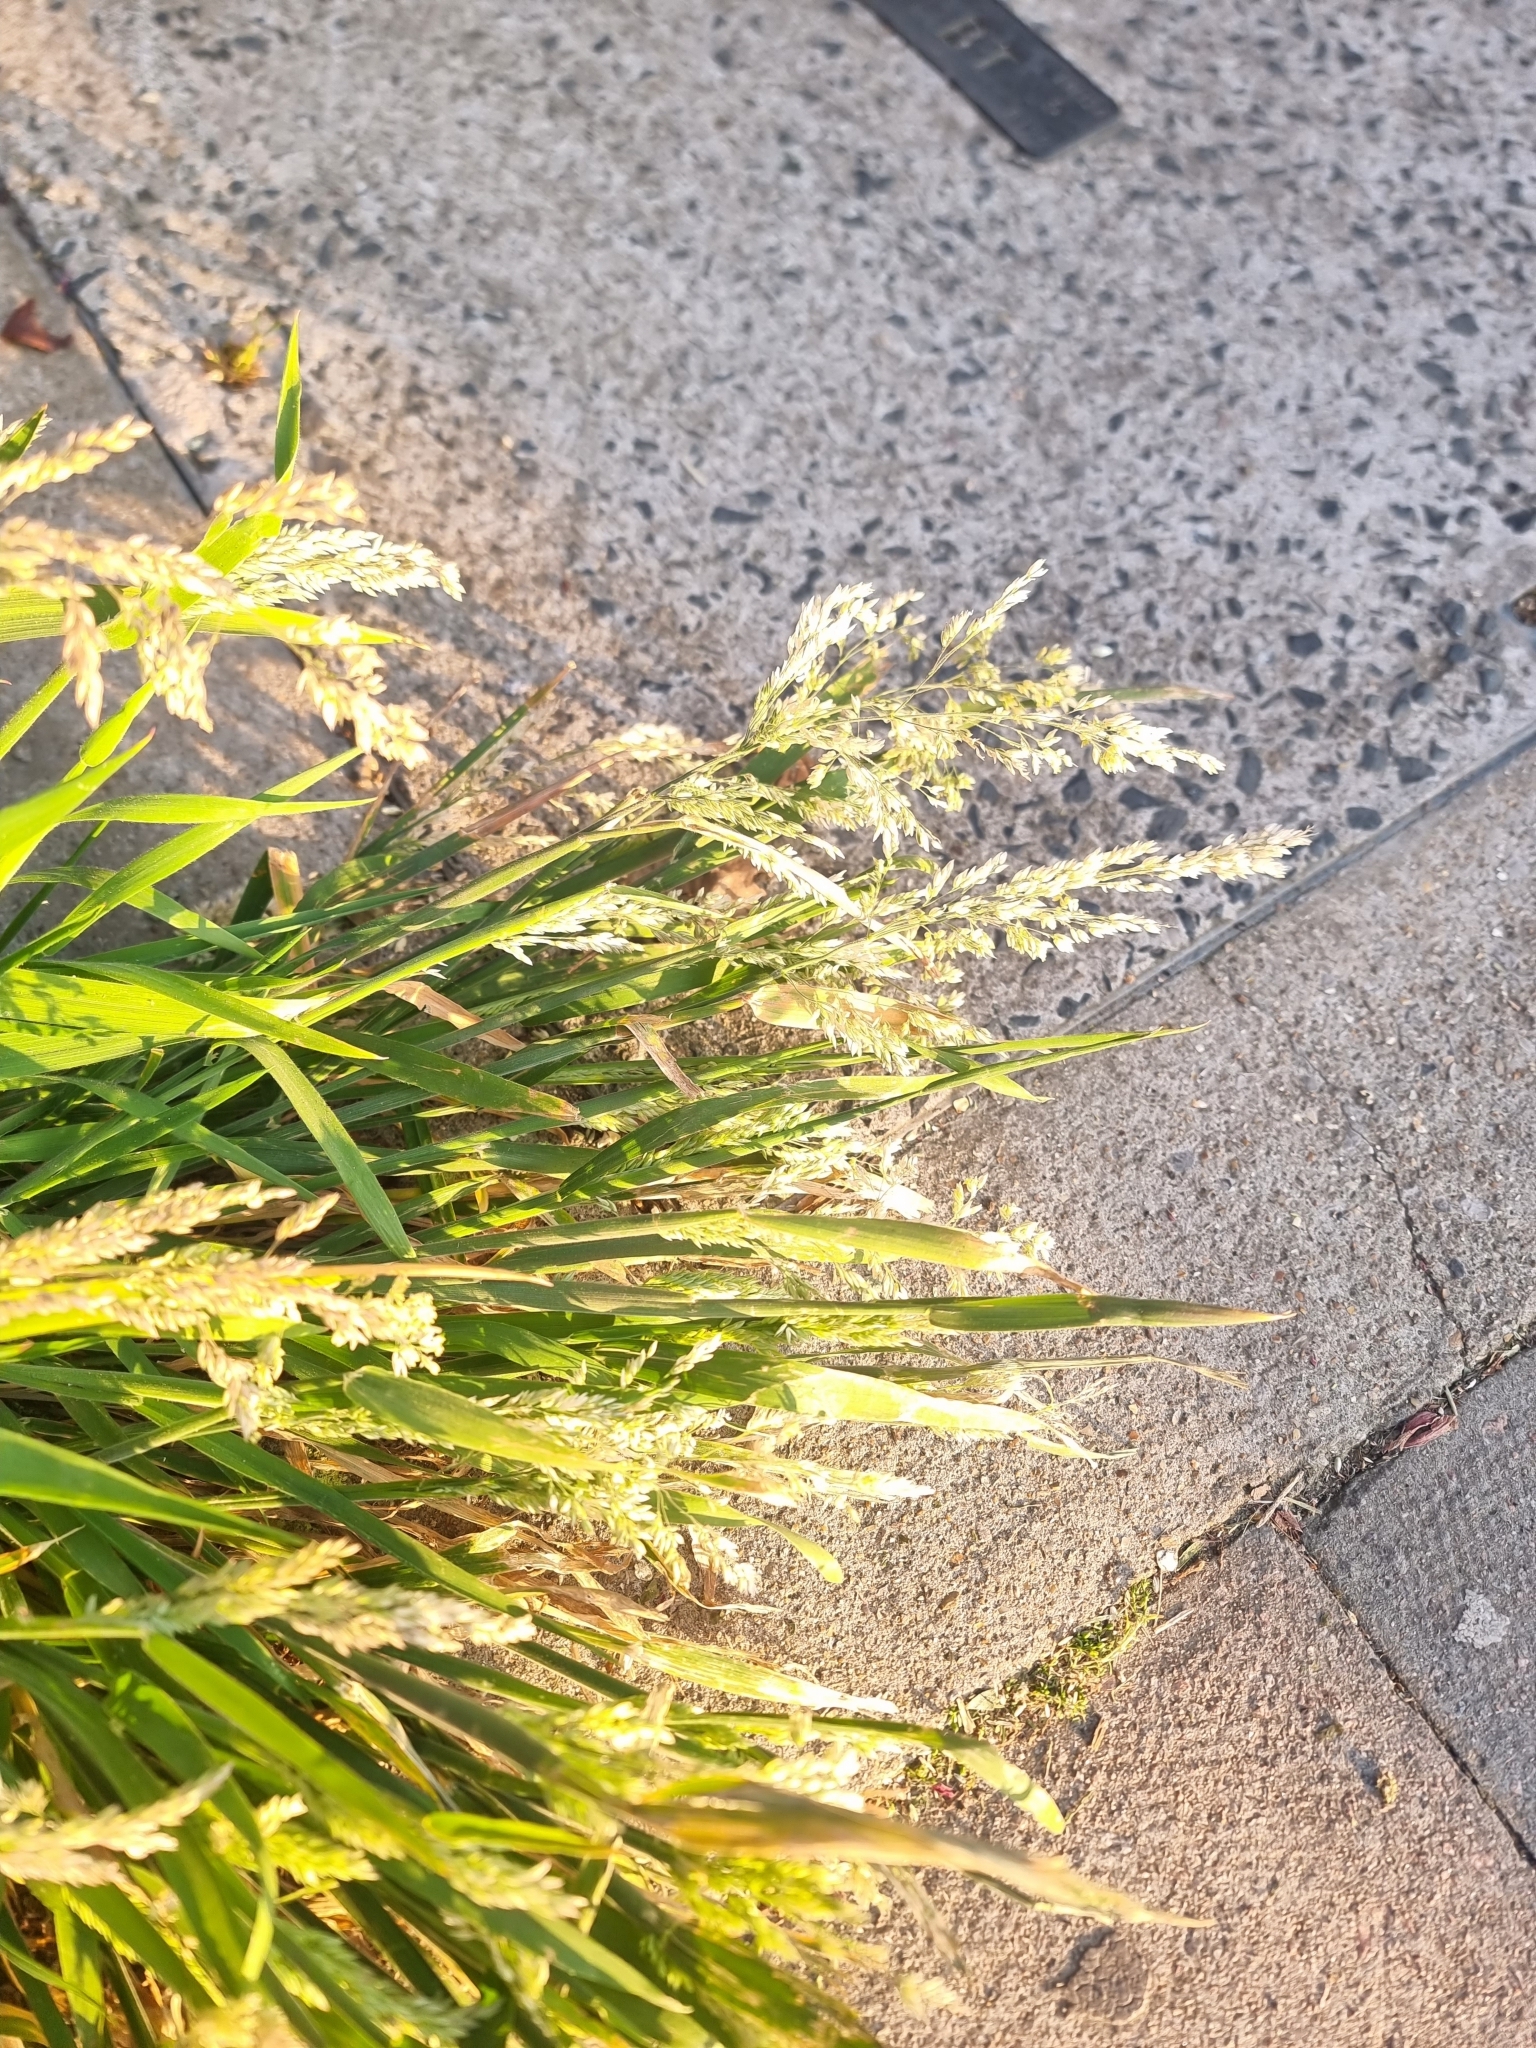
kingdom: Plantae
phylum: Tracheophyta
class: Liliopsida
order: Poales
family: Poaceae
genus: Holcus
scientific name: Holcus lanatus
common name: Yorkshire-fog
